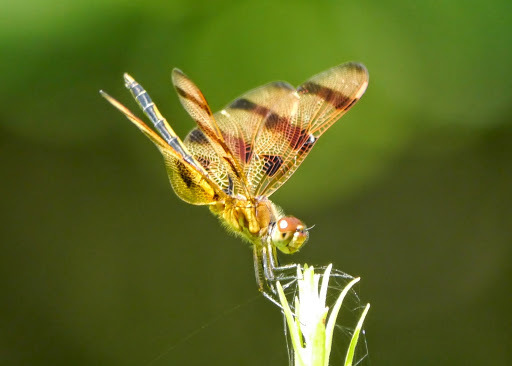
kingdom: Animalia
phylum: Arthropoda
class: Insecta
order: Odonata
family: Libellulidae
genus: Celithemis
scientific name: Celithemis eponina
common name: Halloween pennant
